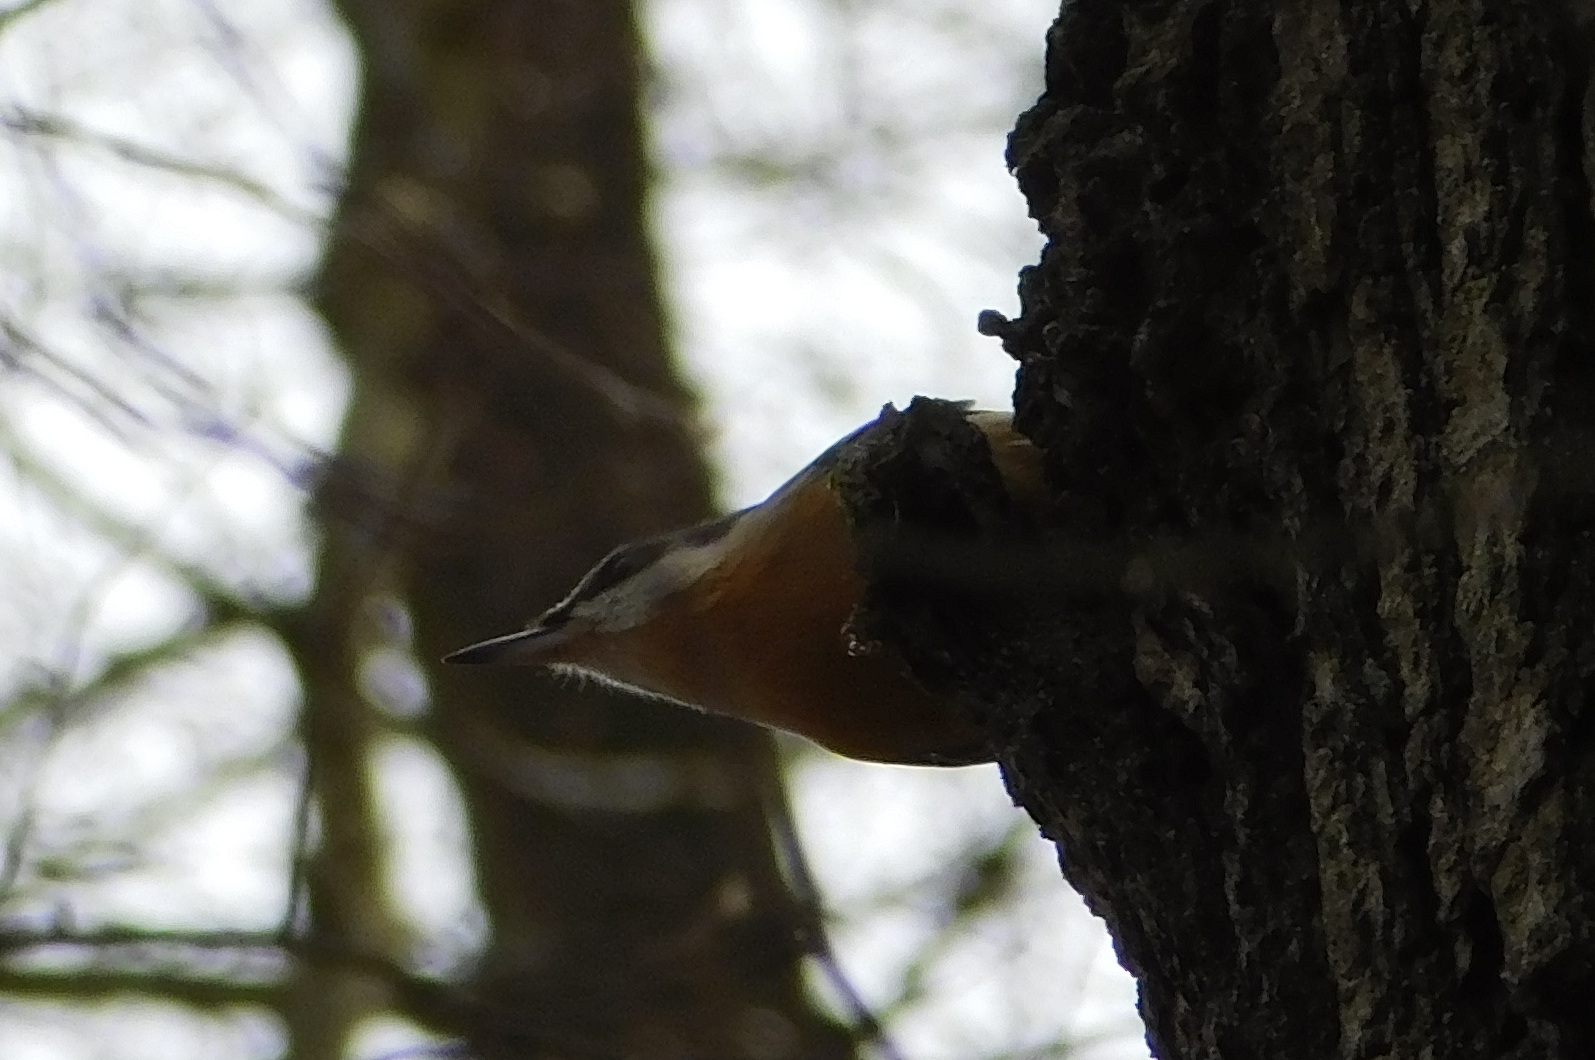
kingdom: Animalia
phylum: Chordata
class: Aves
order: Passeriformes
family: Sittidae
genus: Sitta
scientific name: Sitta europaea
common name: Eurasian nuthatch
